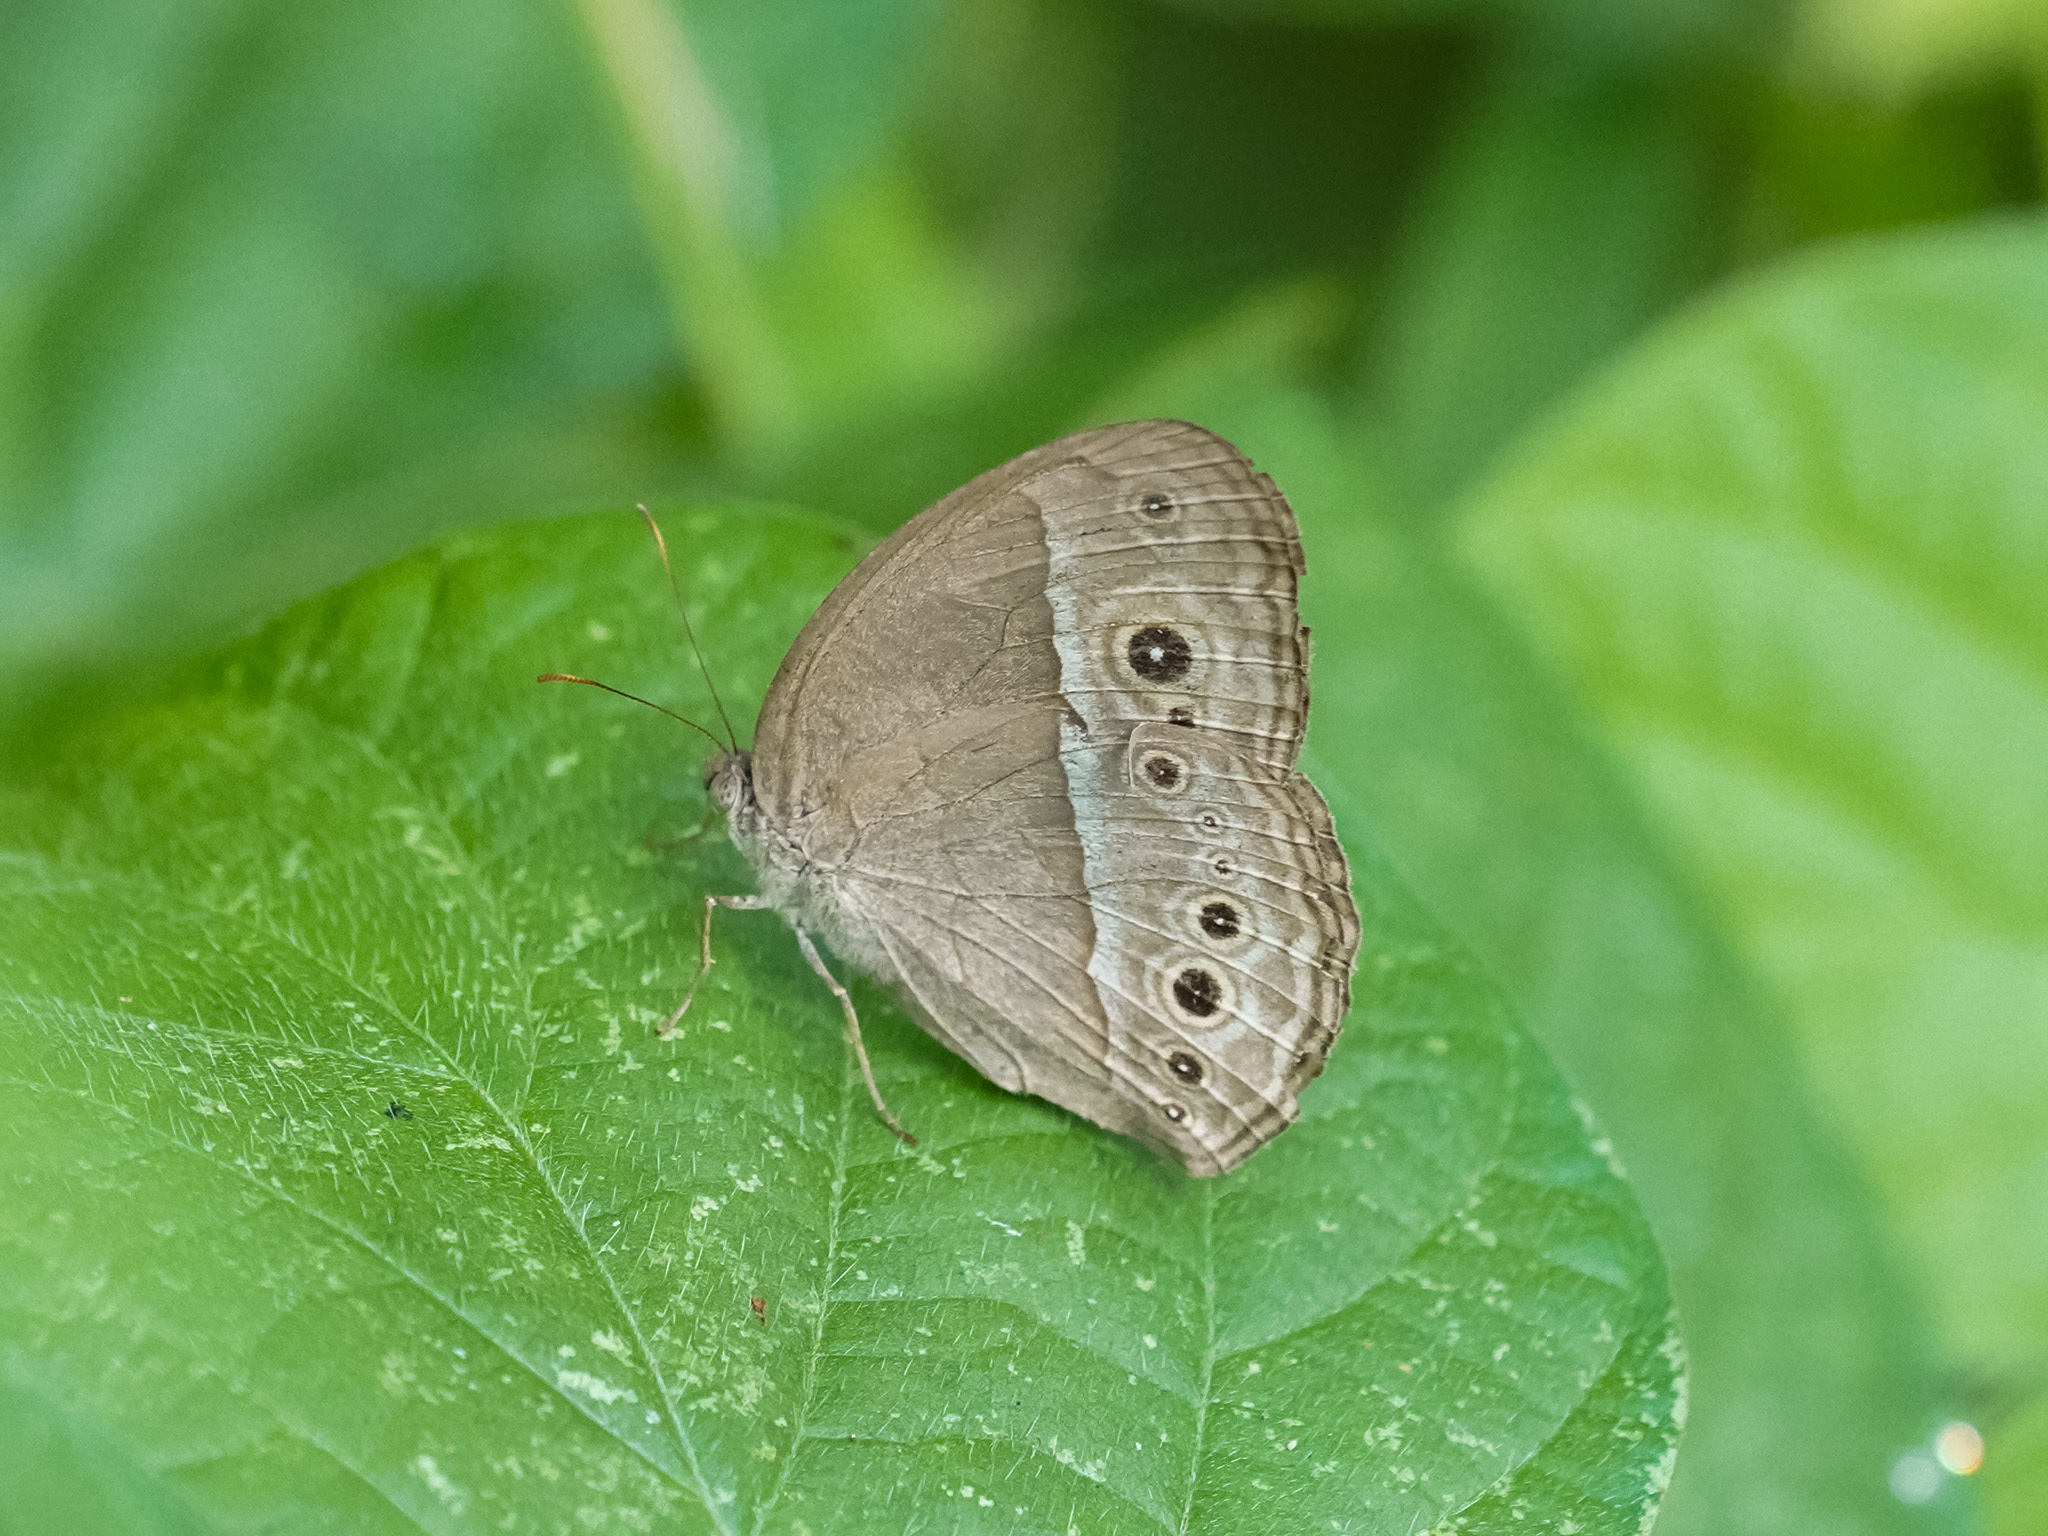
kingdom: Animalia
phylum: Arthropoda
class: Insecta
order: Lepidoptera
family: Nymphalidae
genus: Mycalesis
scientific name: Mycalesis perseoides
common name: Burmese bushbrown
